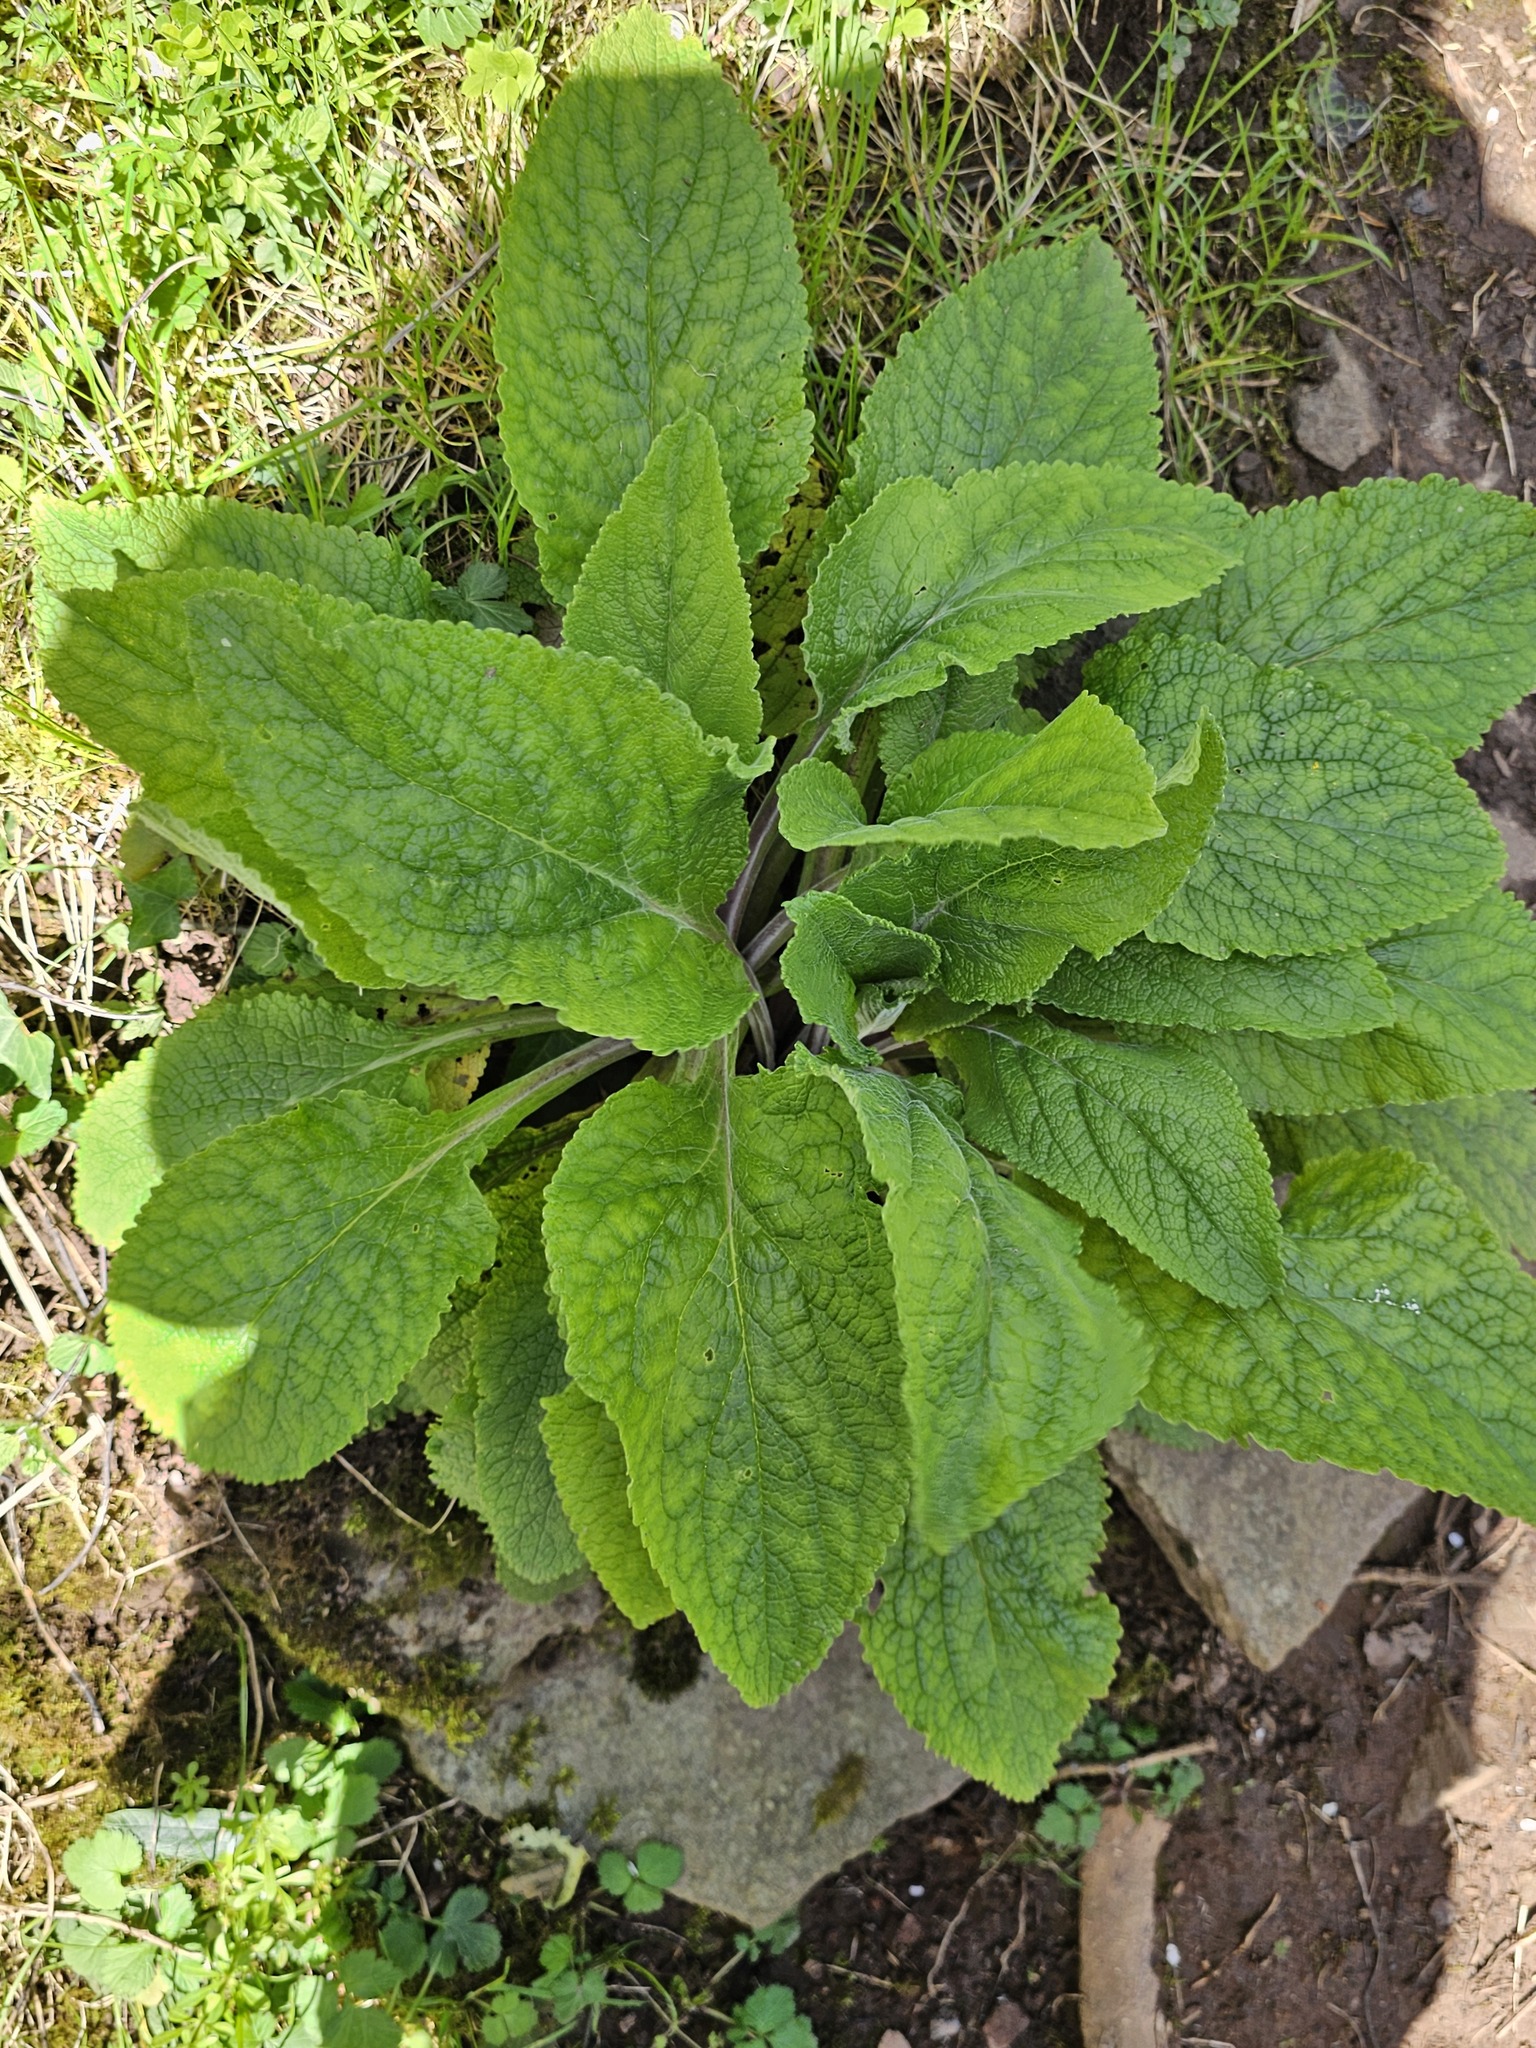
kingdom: Plantae
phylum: Tracheophyta
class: Magnoliopsida
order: Lamiales
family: Plantaginaceae
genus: Digitalis
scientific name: Digitalis purpurea
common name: Foxglove
